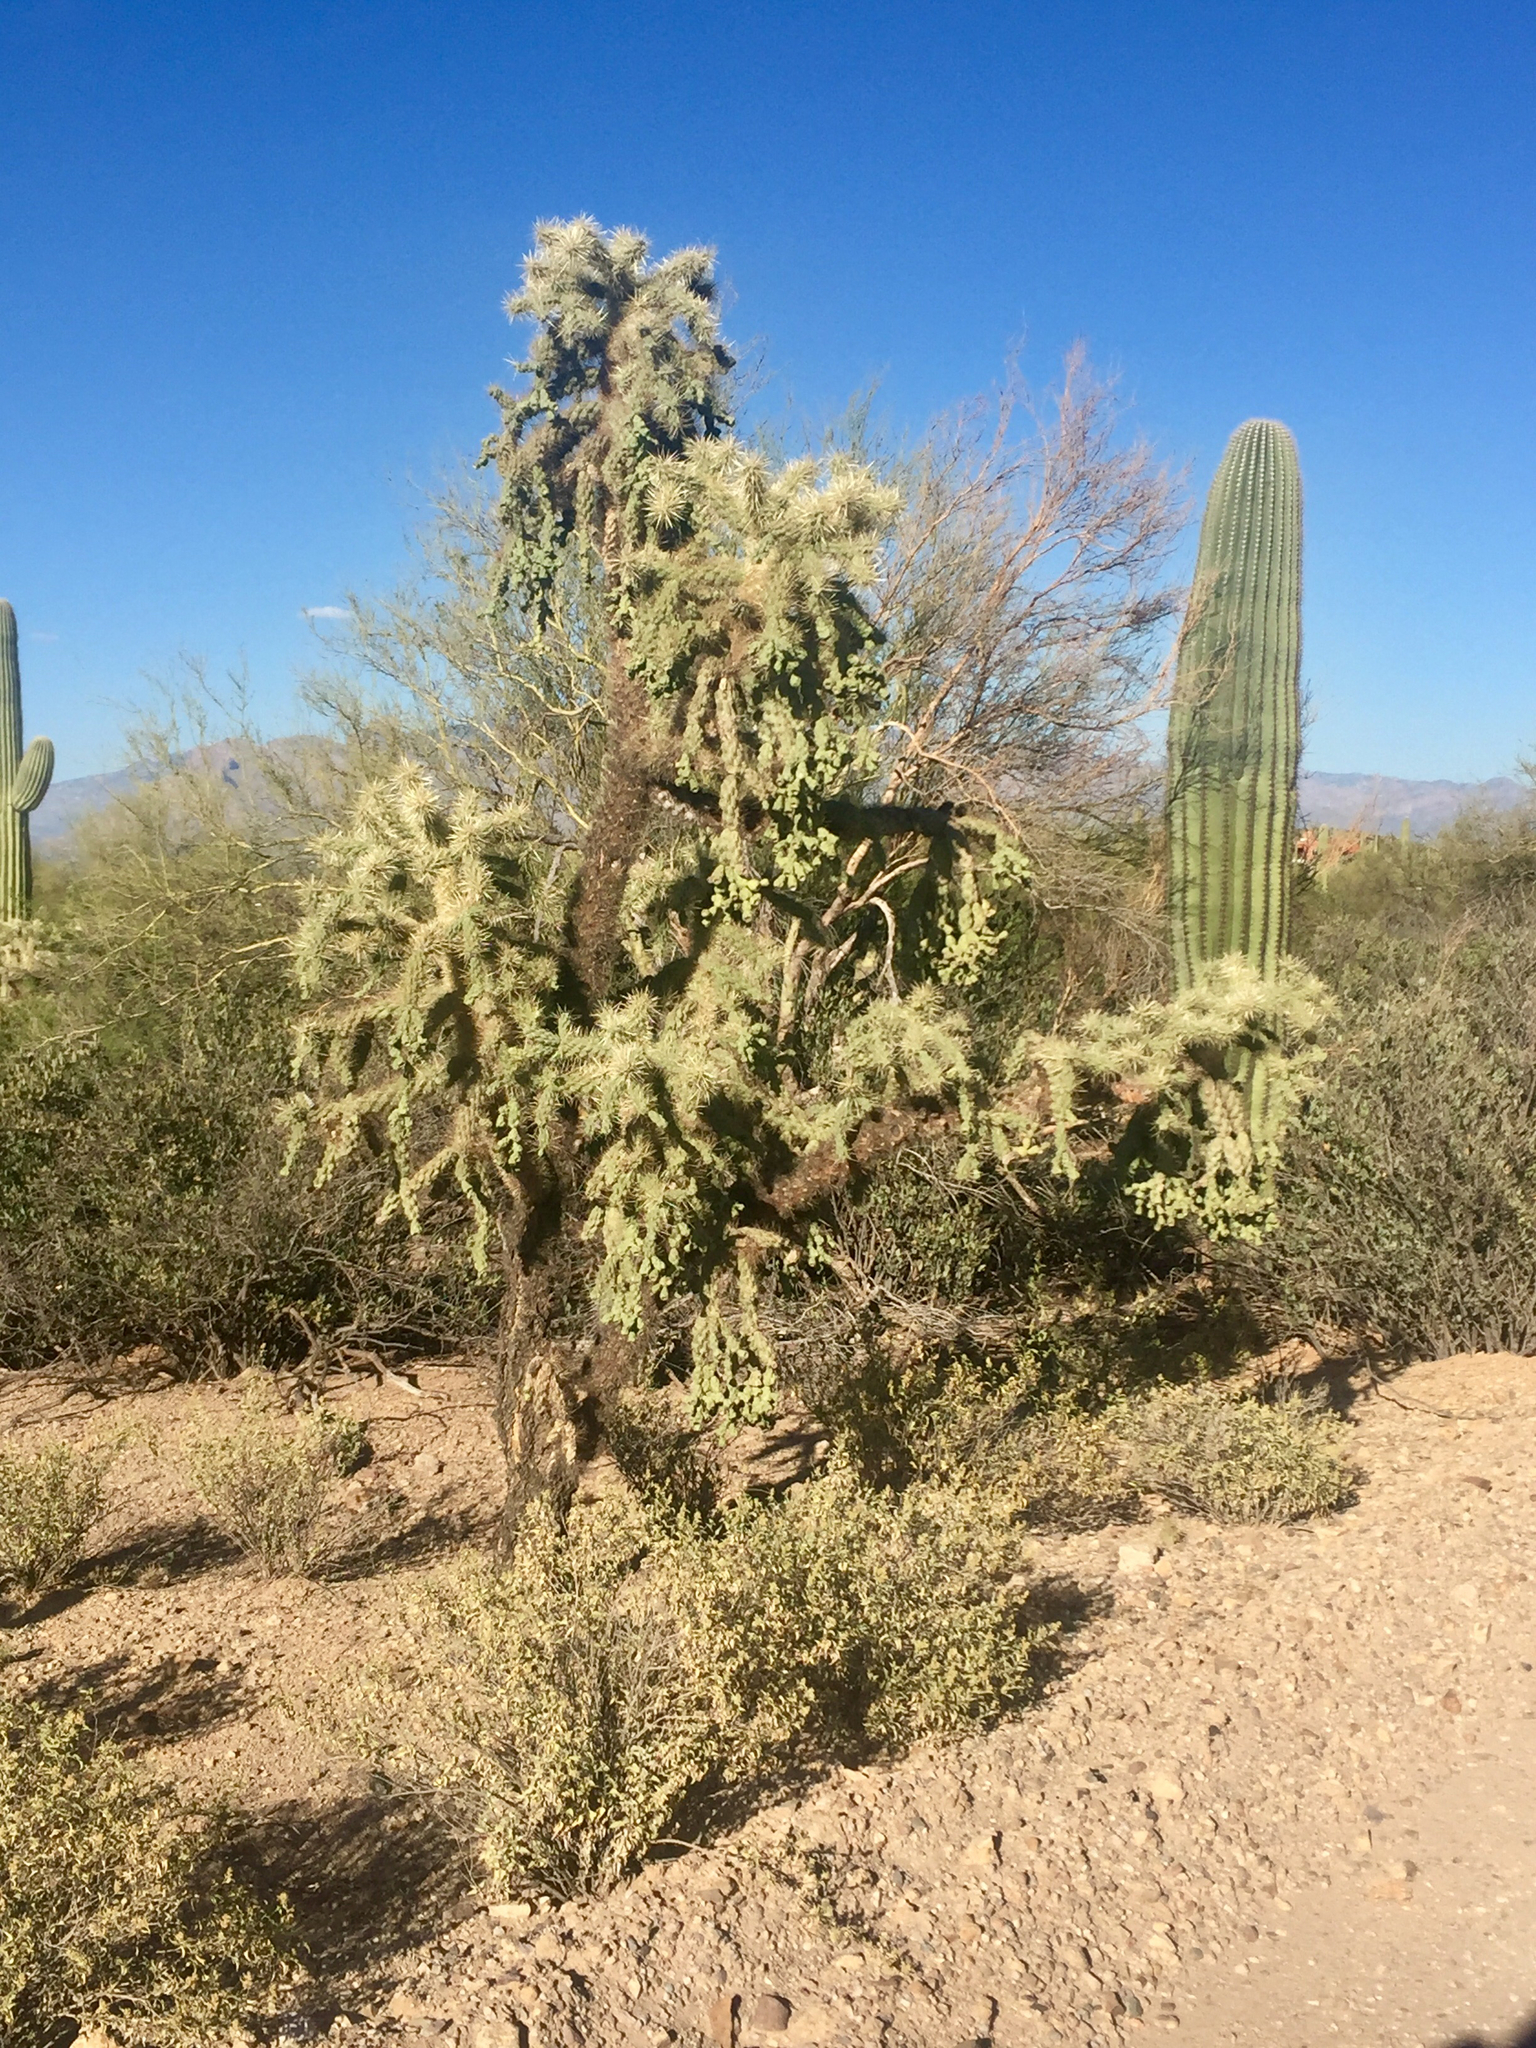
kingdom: Plantae
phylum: Tracheophyta
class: Magnoliopsida
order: Caryophyllales
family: Cactaceae
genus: Cylindropuntia
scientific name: Cylindropuntia fulgida
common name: Jumping cholla
